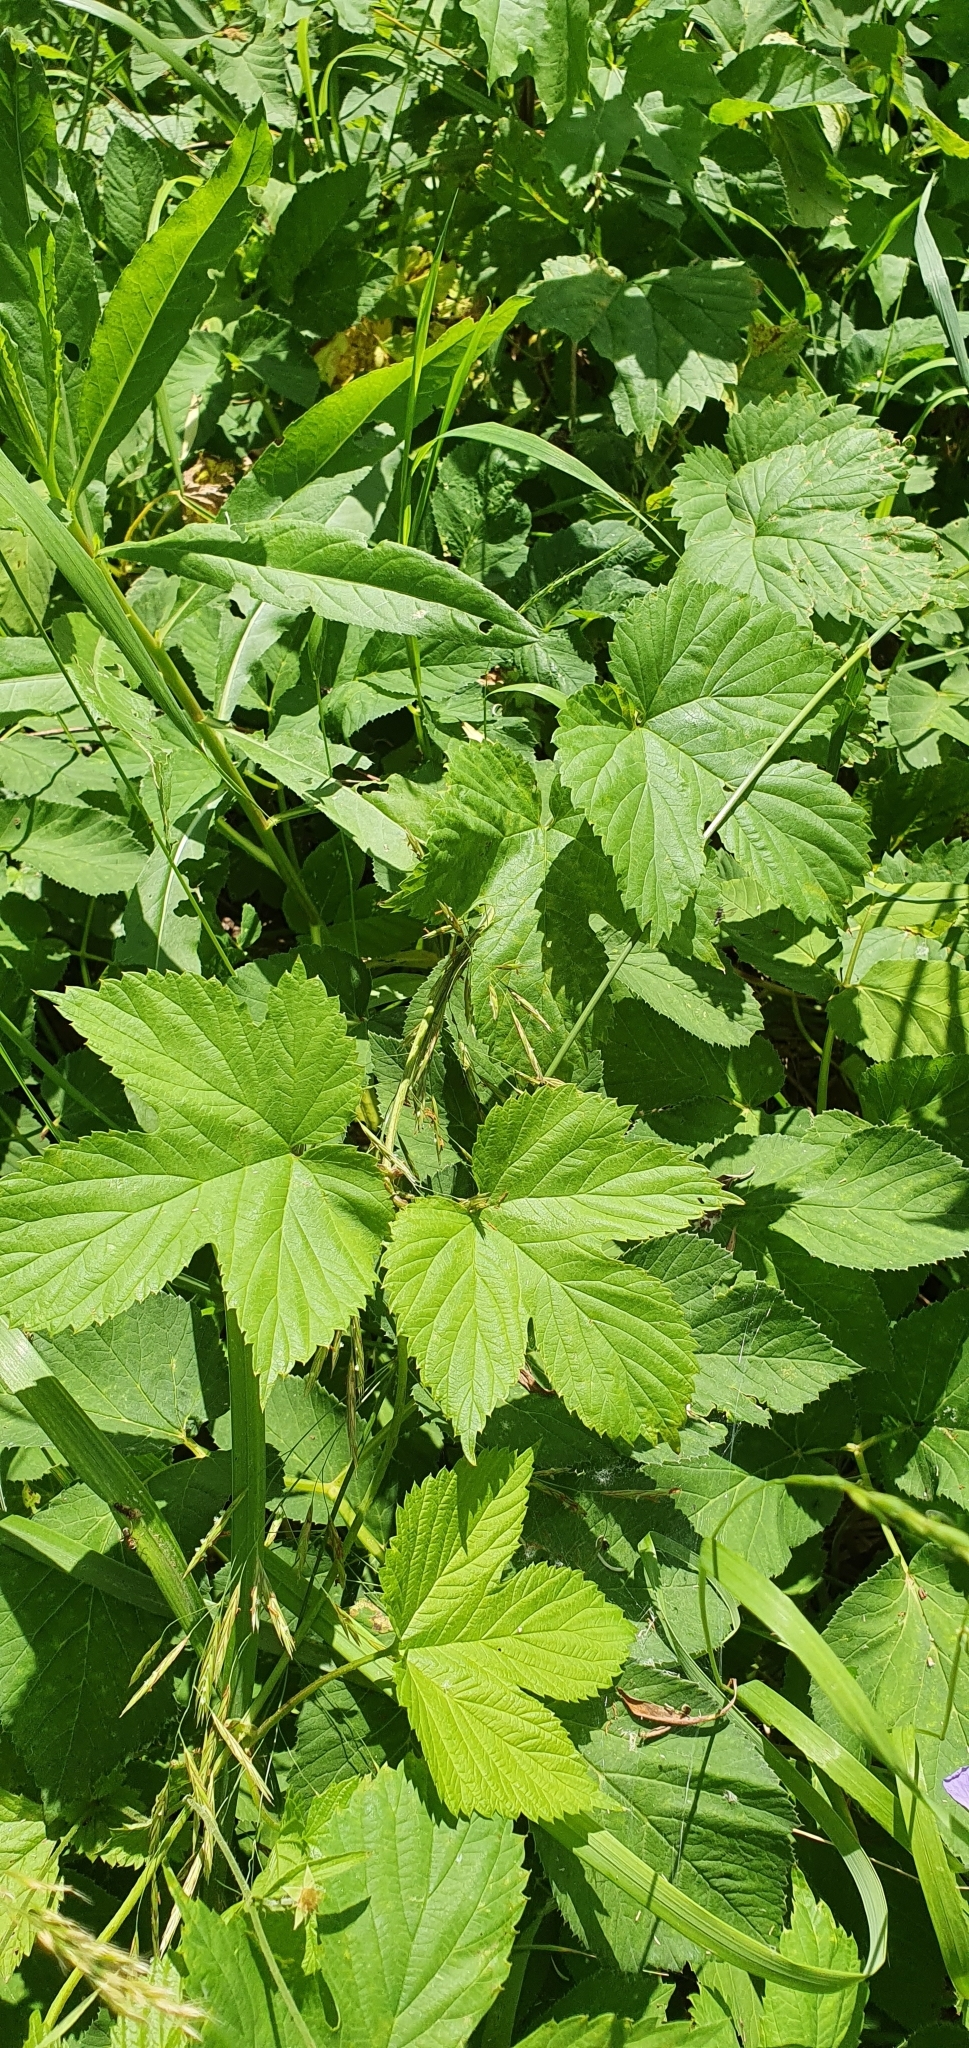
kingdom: Plantae
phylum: Tracheophyta
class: Magnoliopsida
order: Rosales
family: Cannabaceae
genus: Humulus
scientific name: Humulus lupulus
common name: Hop
